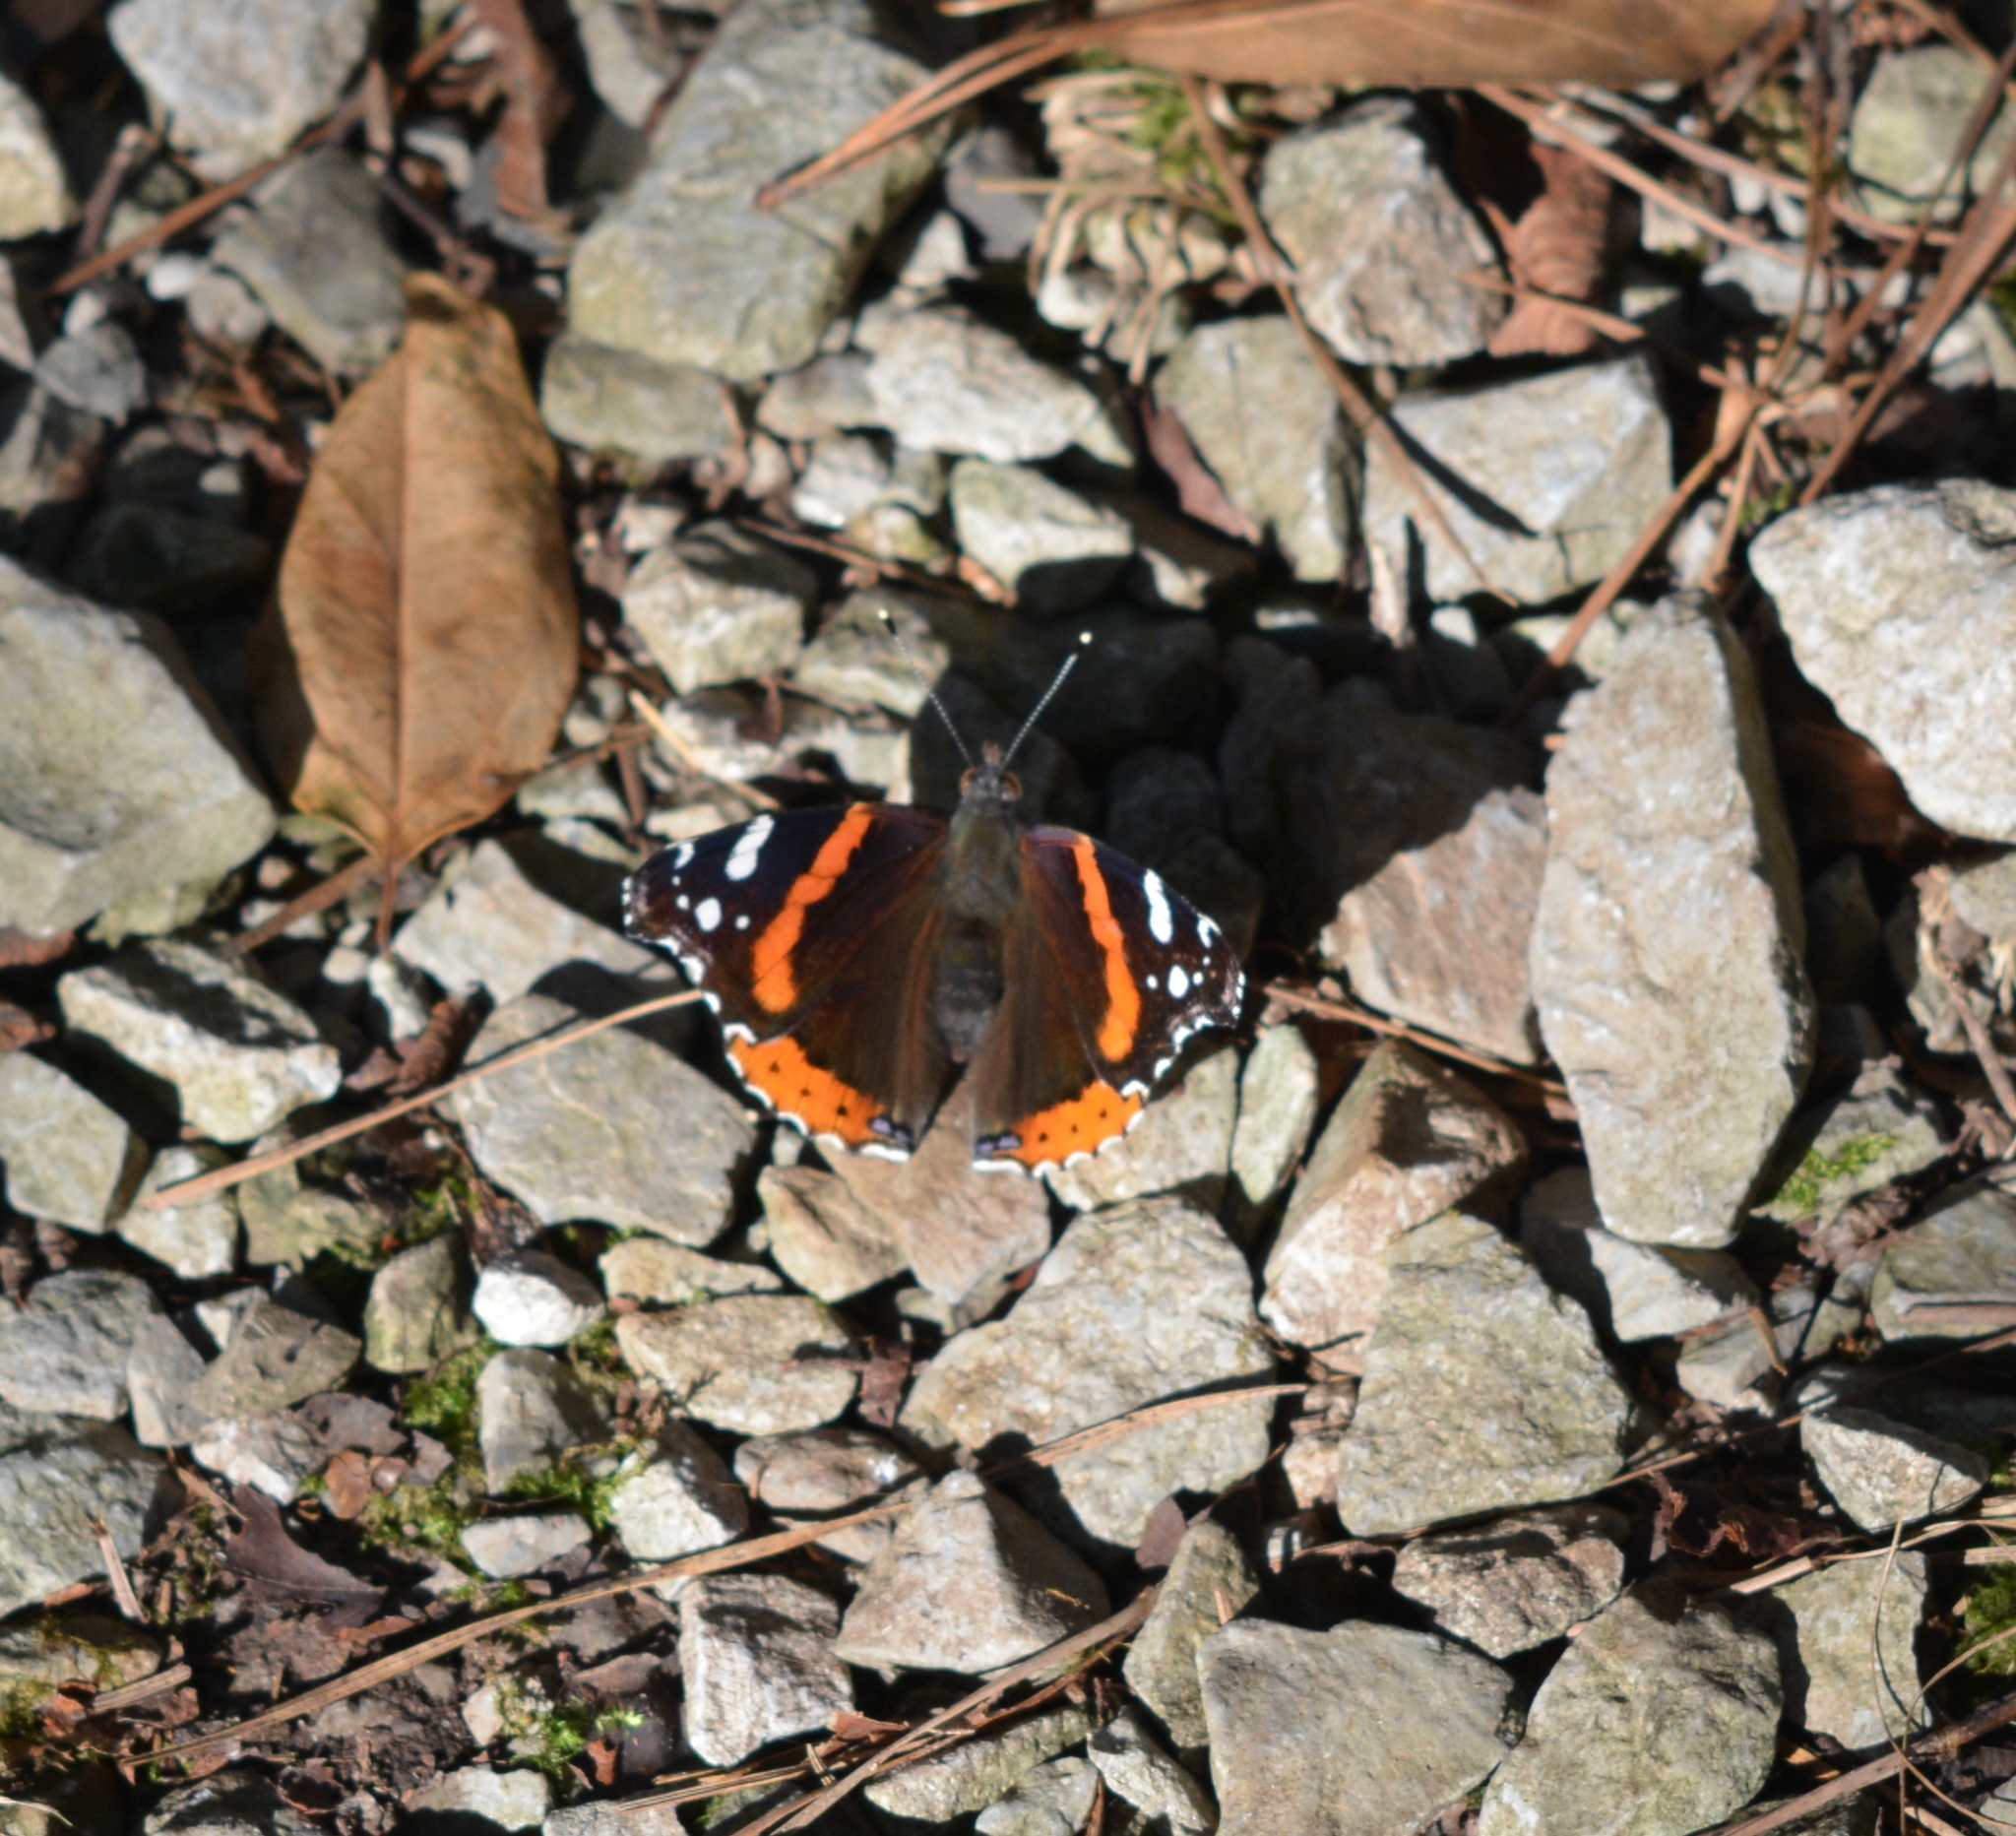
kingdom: Animalia
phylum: Arthropoda
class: Insecta
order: Lepidoptera
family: Nymphalidae
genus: Vanessa
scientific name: Vanessa atalanta
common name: Red admiral
